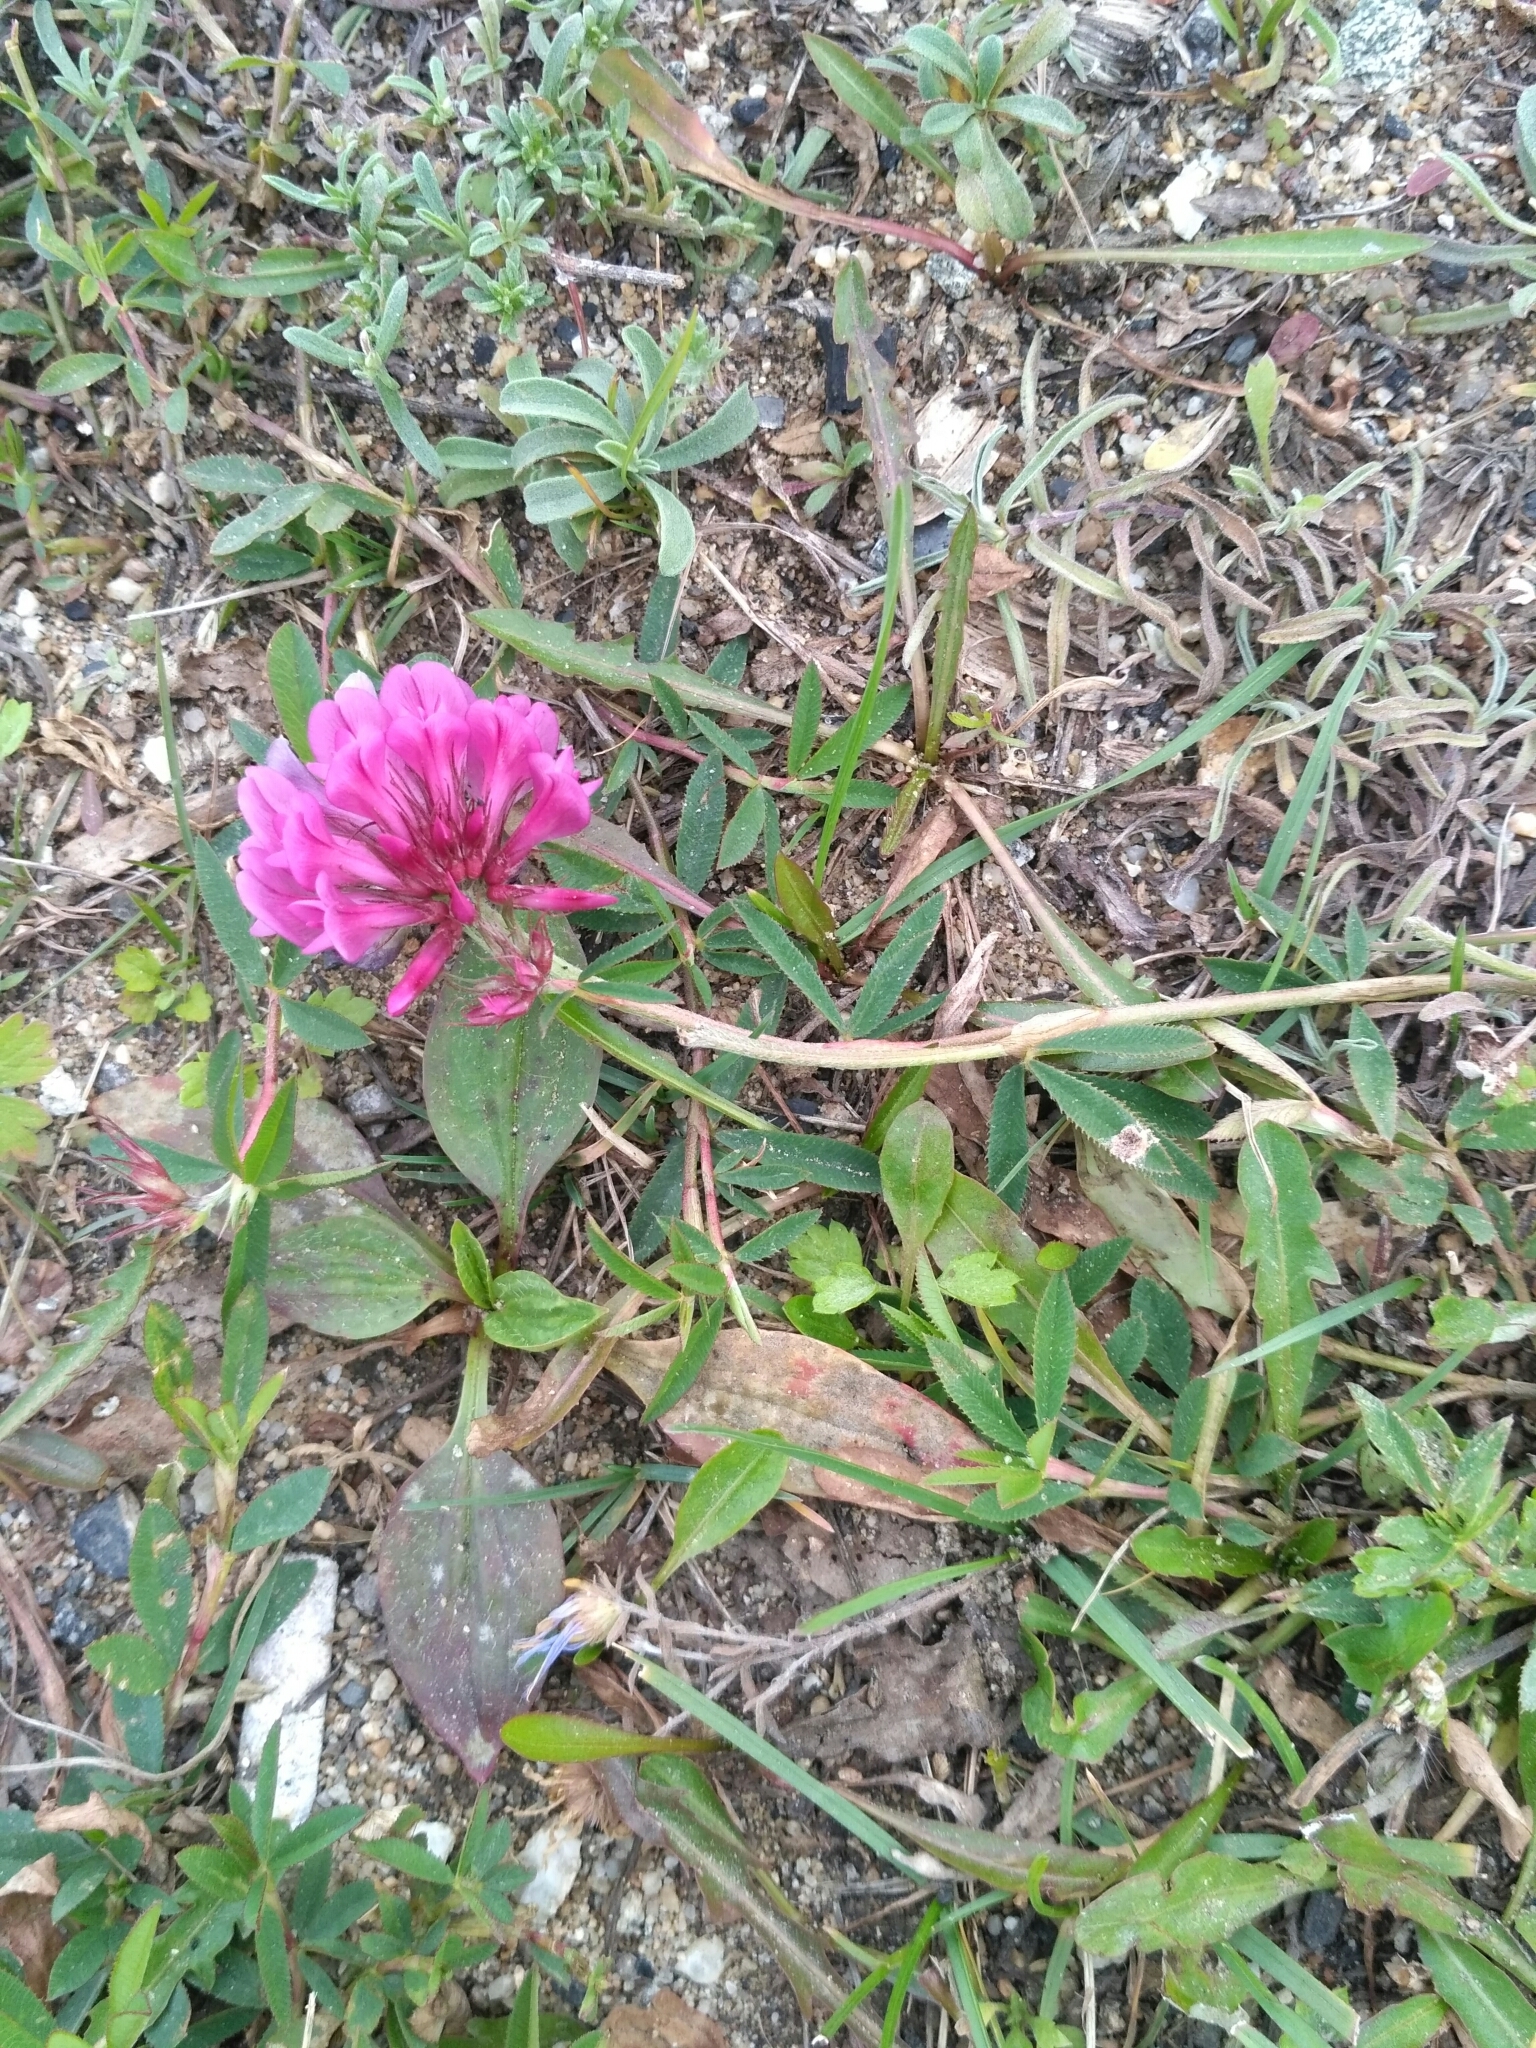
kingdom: Plantae
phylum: Tracheophyta
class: Magnoliopsida
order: Fabales
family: Fabaceae
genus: Trifolium
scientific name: Trifolium lupinaster
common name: Lupine clover
